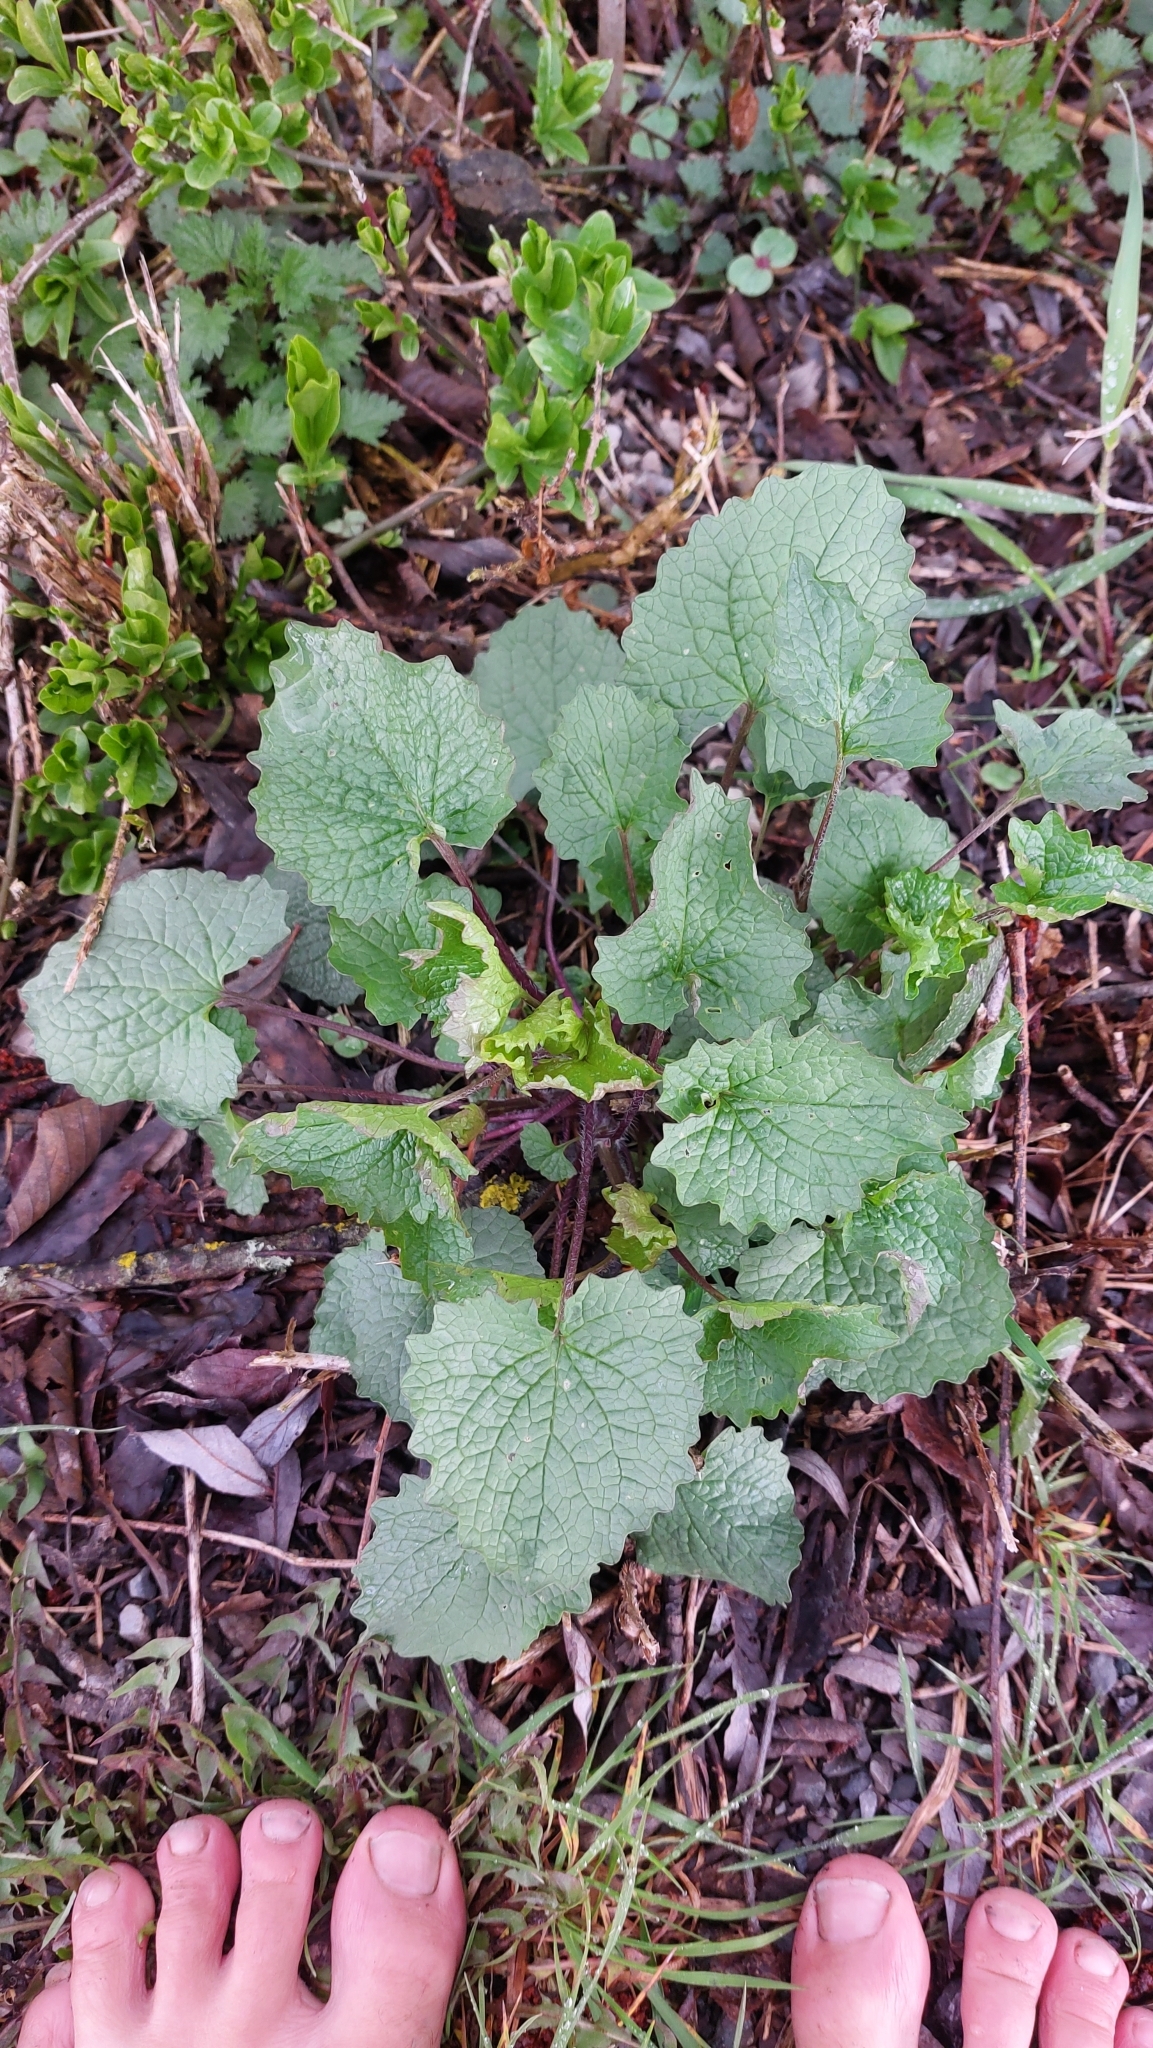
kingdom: Plantae
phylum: Tracheophyta
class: Magnoliopsida
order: Brassicales
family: Brassicaceae
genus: Alliaria
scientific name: Alliaria petiolata
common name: Garlic mustard
